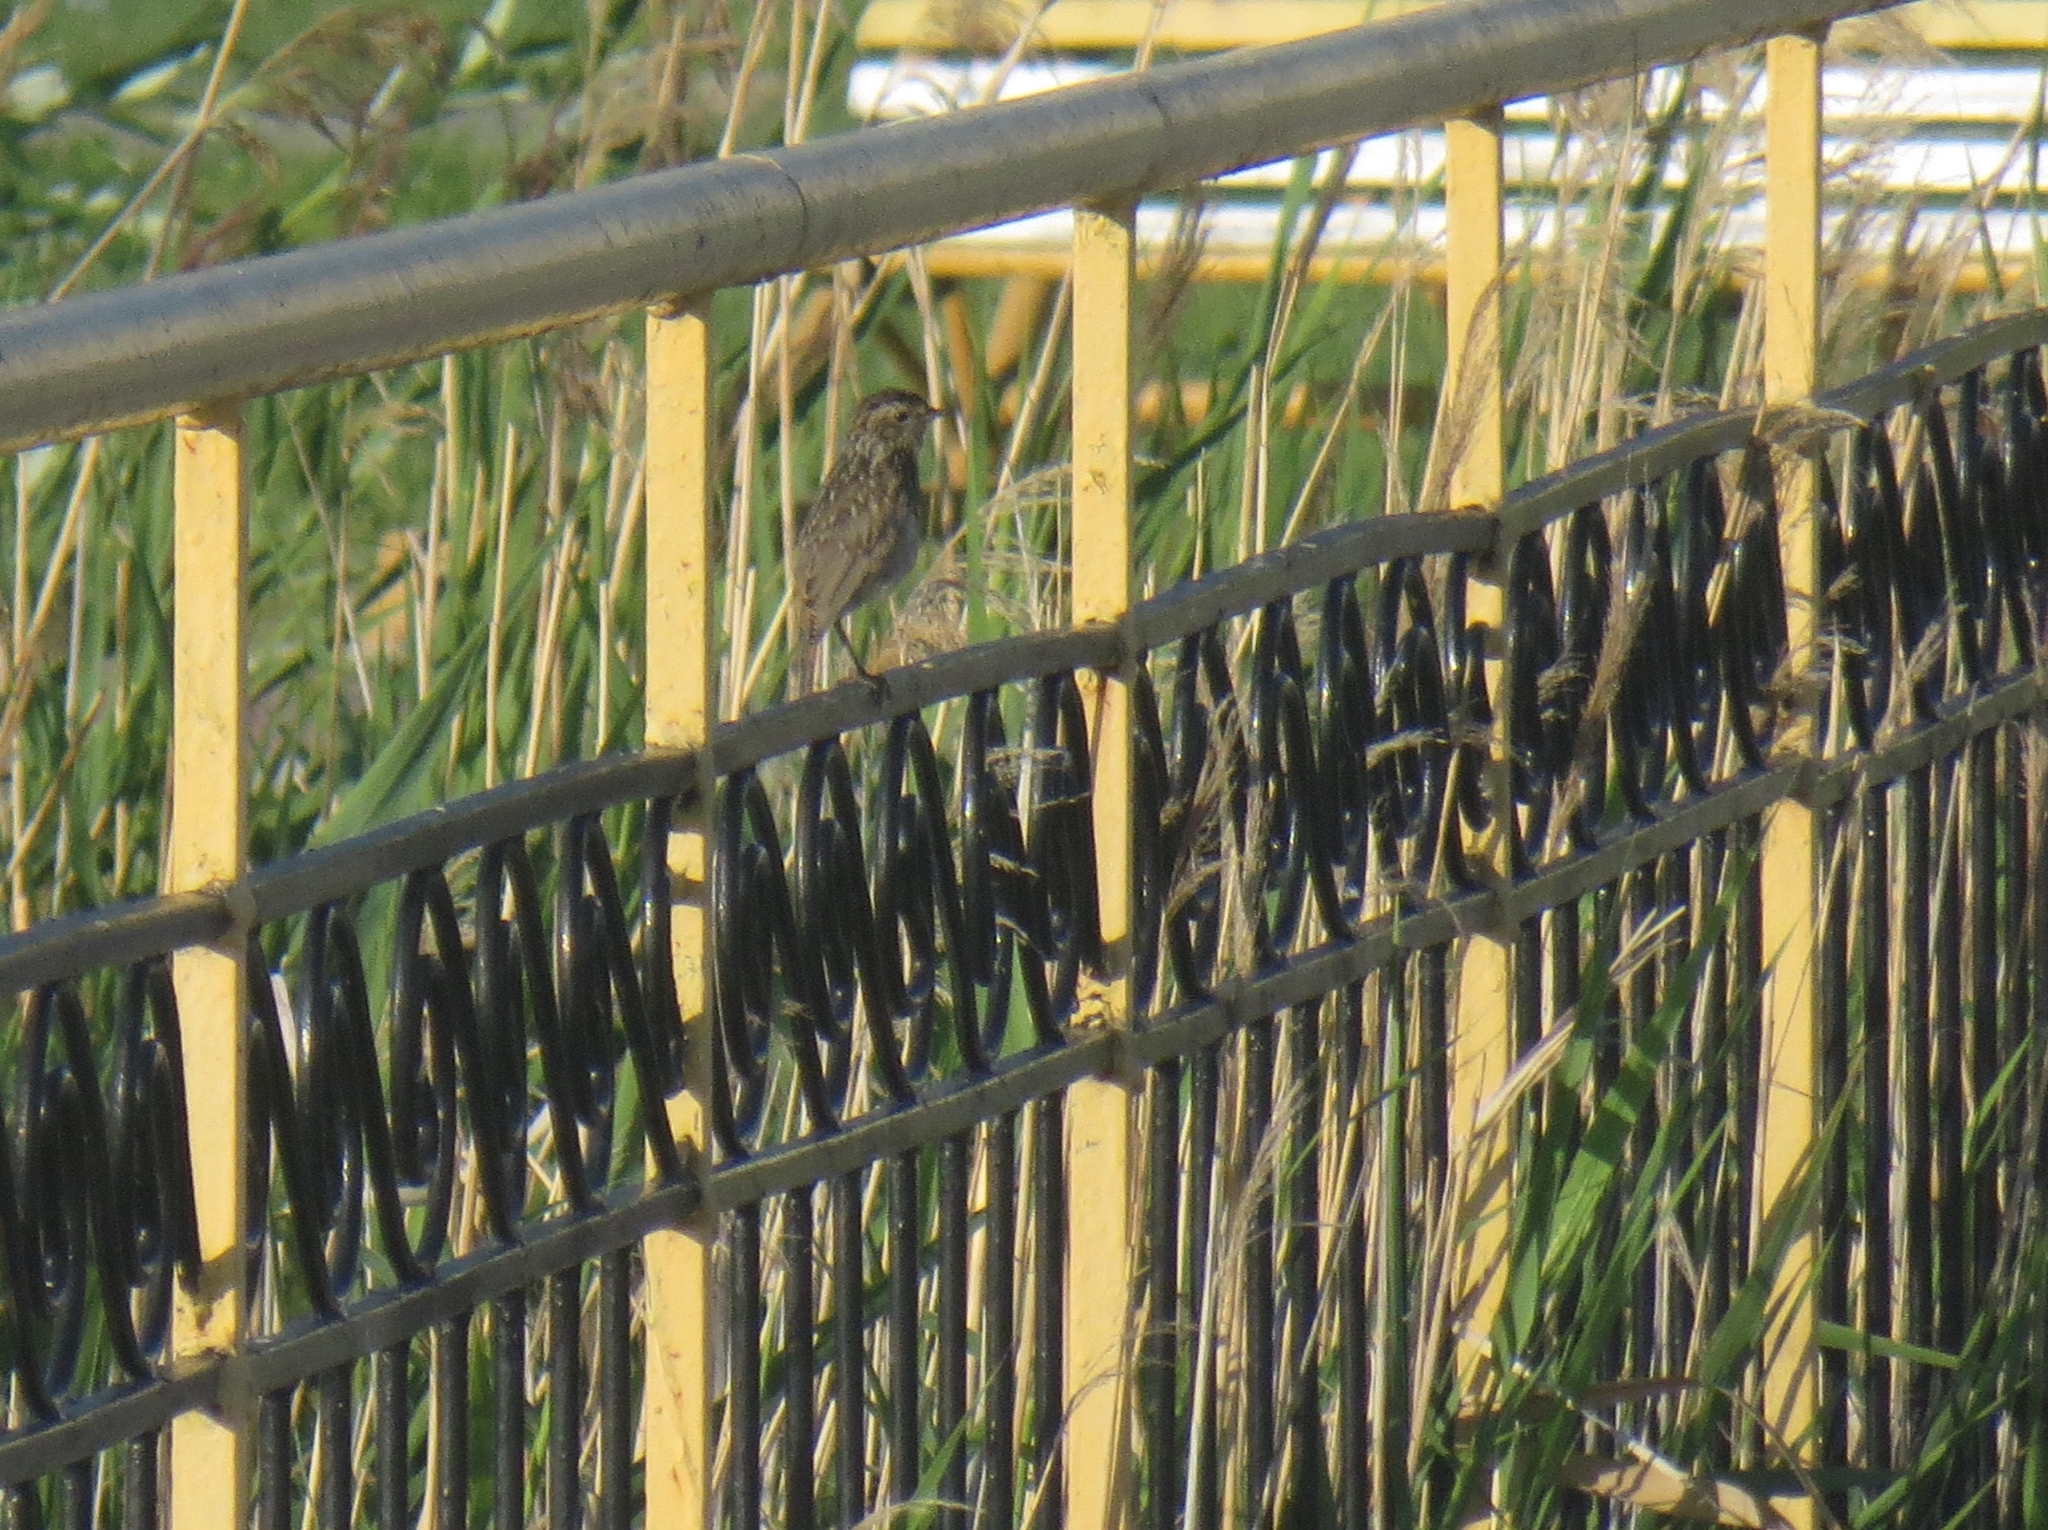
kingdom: Animalia
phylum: Chordata
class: Aves
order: Passeriformes
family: Muscicapidae
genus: Luscinia
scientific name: Luscinia svecica
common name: Bluethroat
